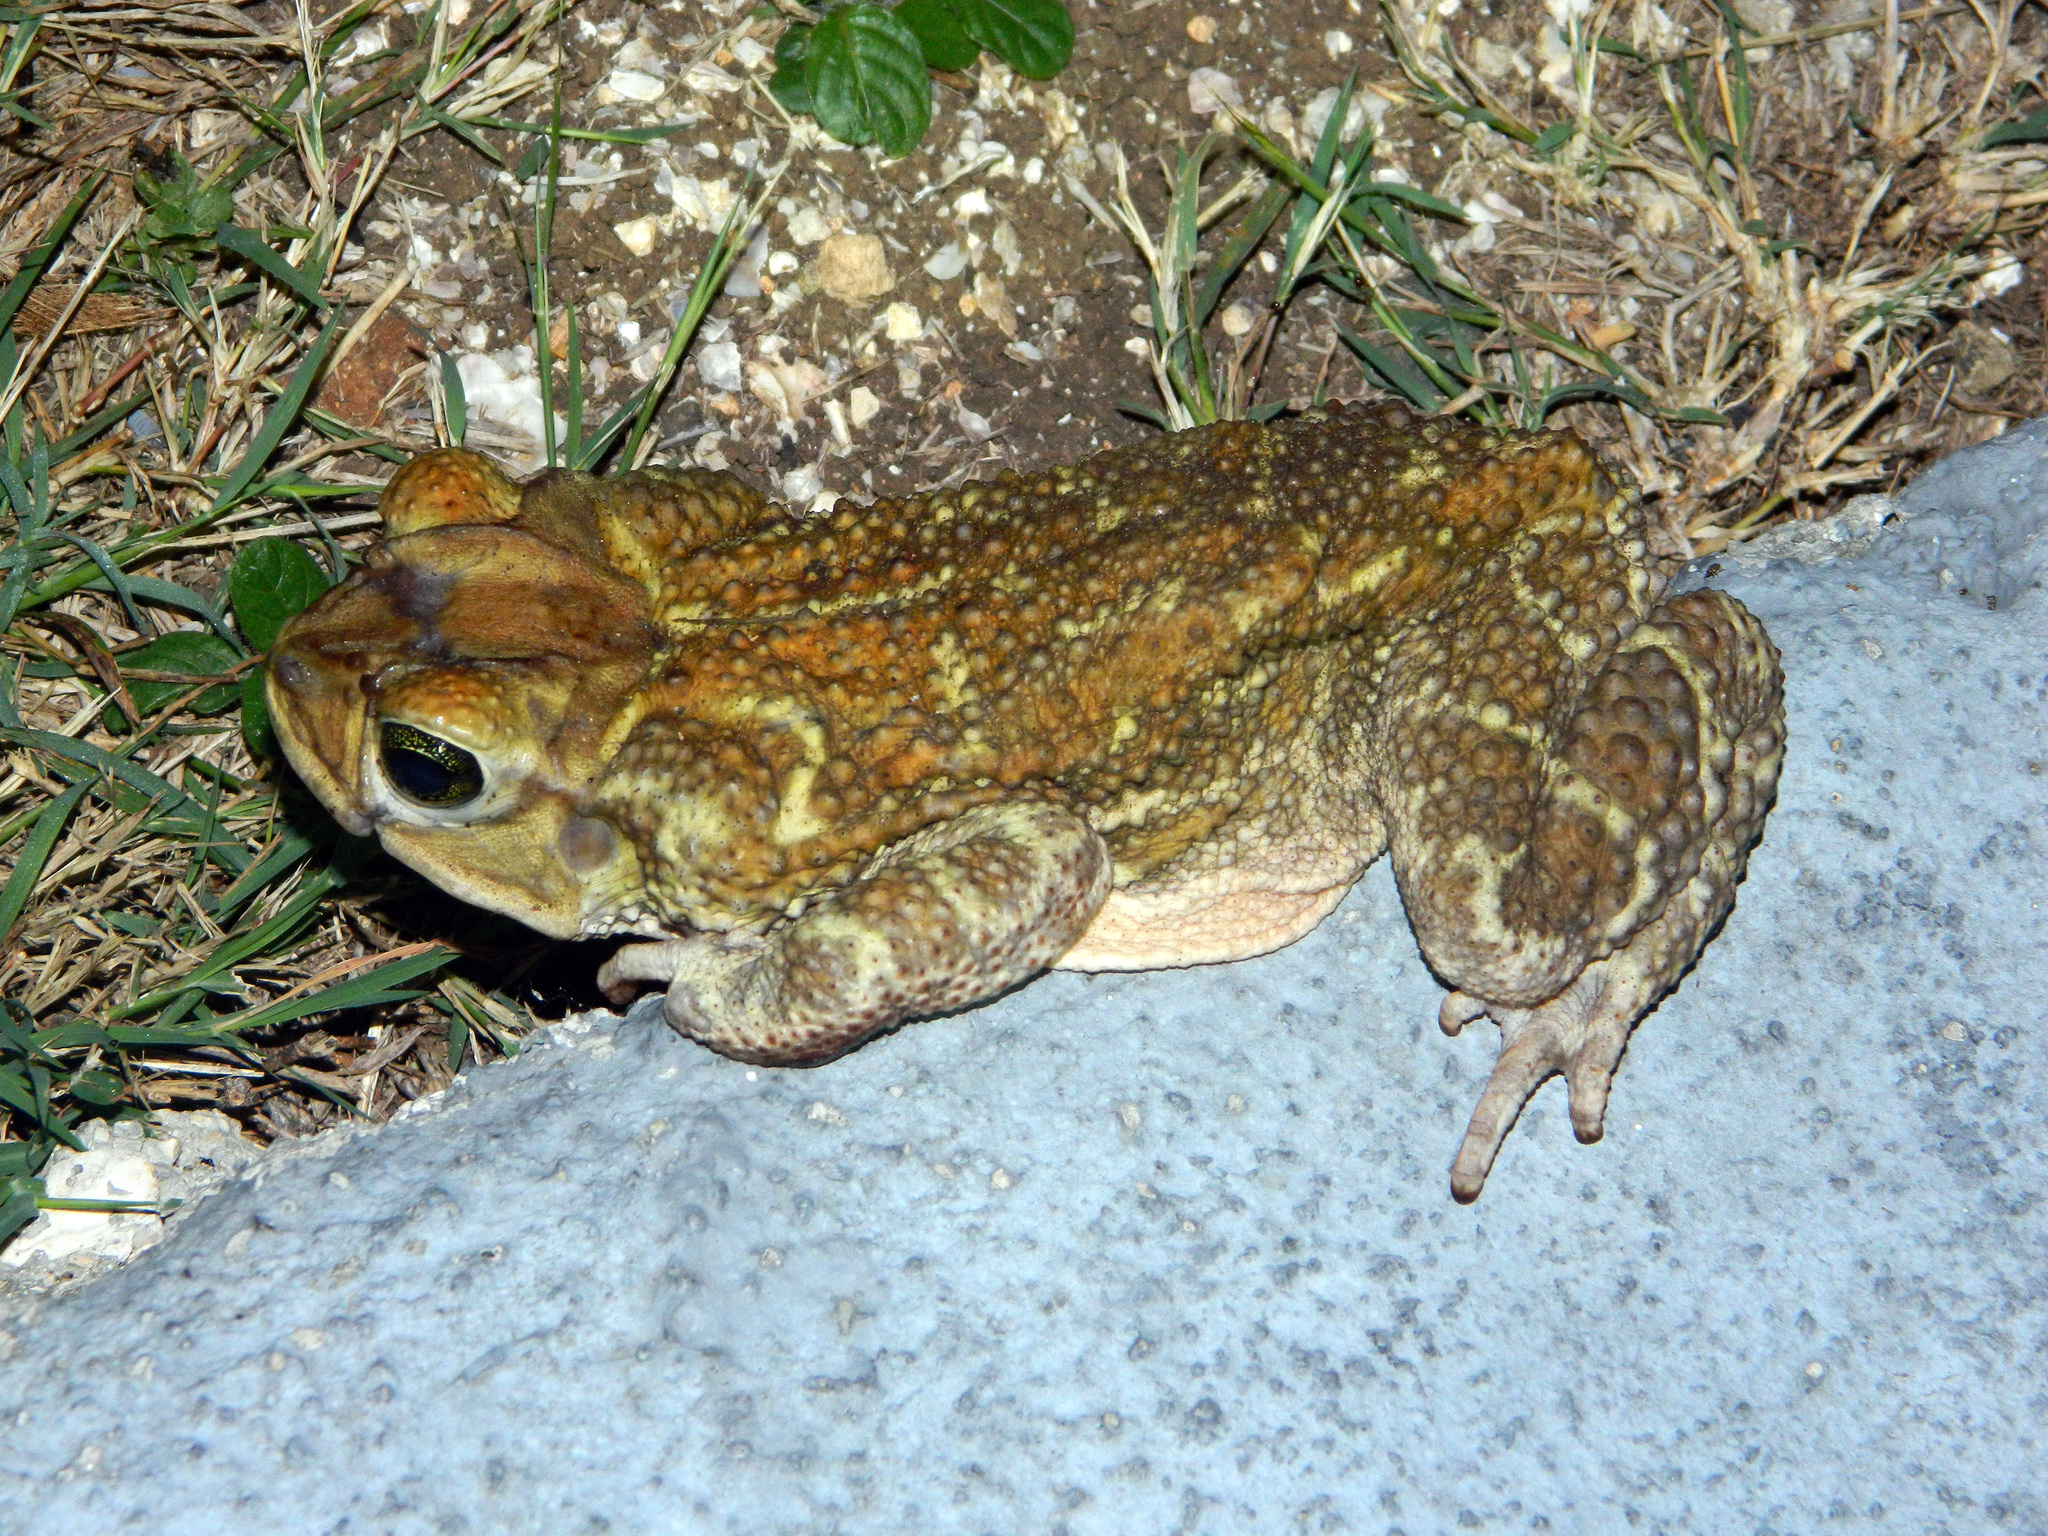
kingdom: Animalia
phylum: Chordata
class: Amphibia
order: Anura
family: Bufonidae
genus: Peltophryne
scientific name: Peltophryne peltocephala
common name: Eastern cuba giant toad
